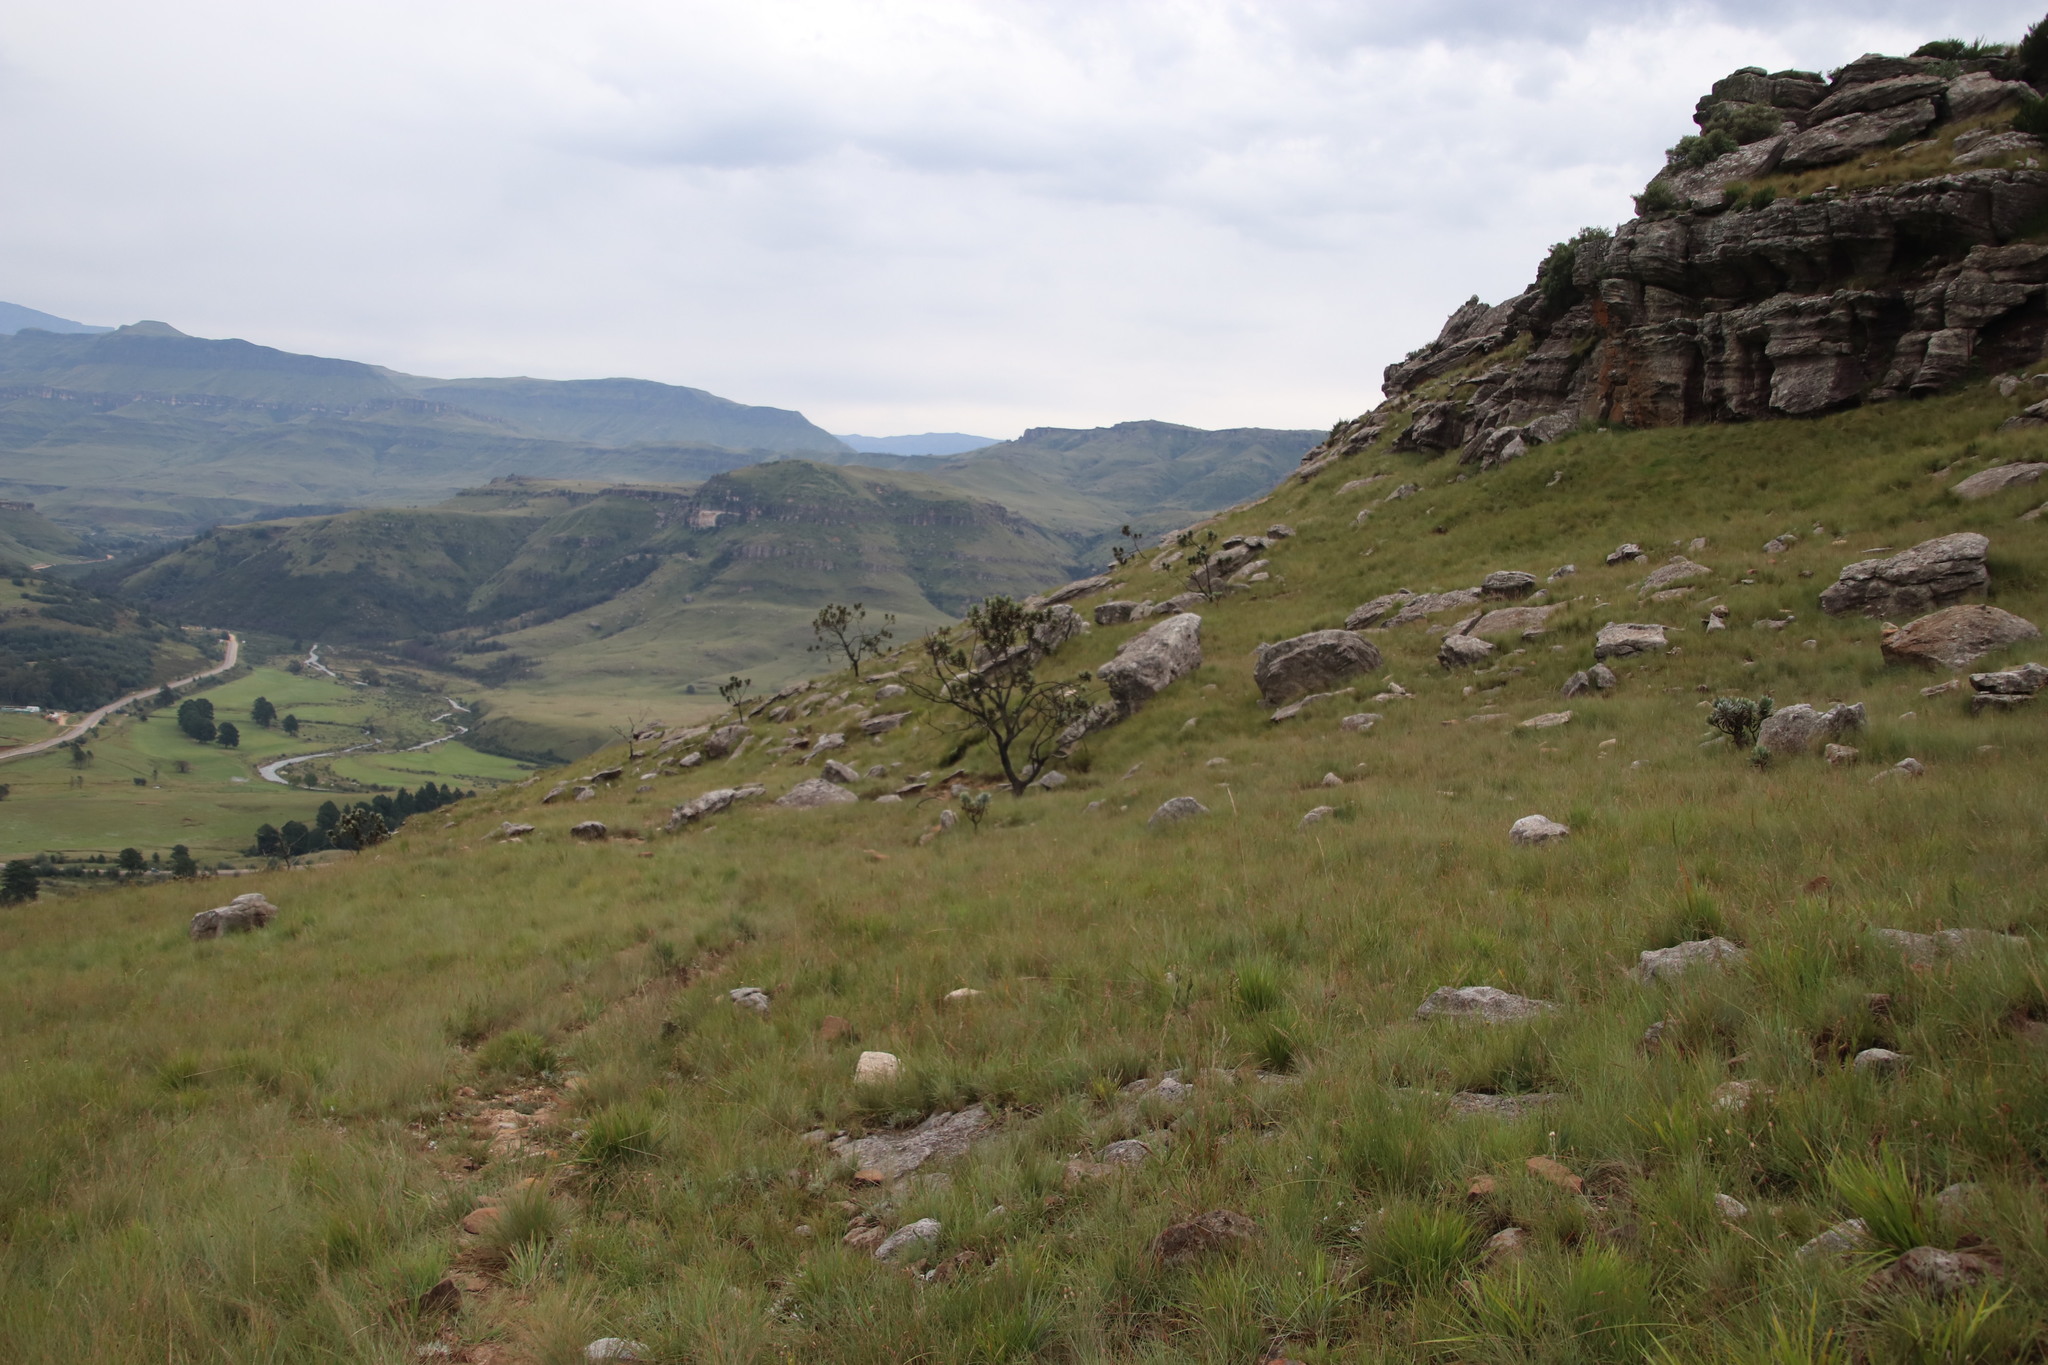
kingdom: Plantae
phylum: Tracheophyta
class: Magnoliopsida
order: Proteales
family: Proteaceae
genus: Protea
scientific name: Protea roupelliae
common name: Silver sugarbush
